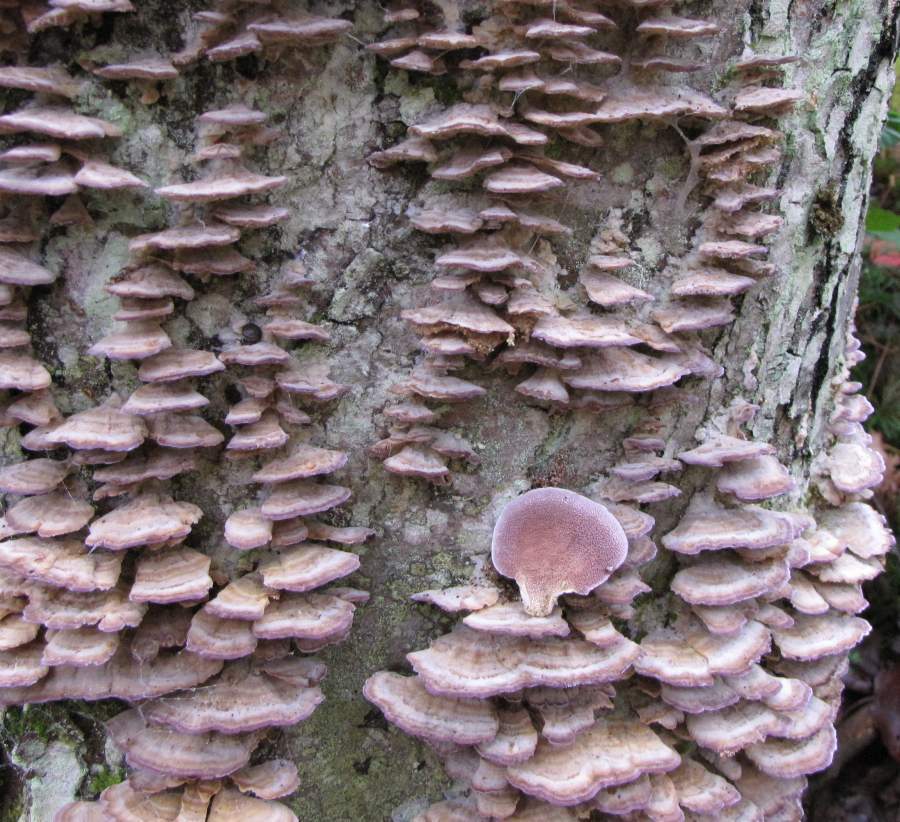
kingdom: Fungi
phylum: Basidiomycota
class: Agaricomycetes
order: Hymenochaetales
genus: Trichaptum
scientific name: Trichaptum biforme
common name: Violet-toothed polypore
